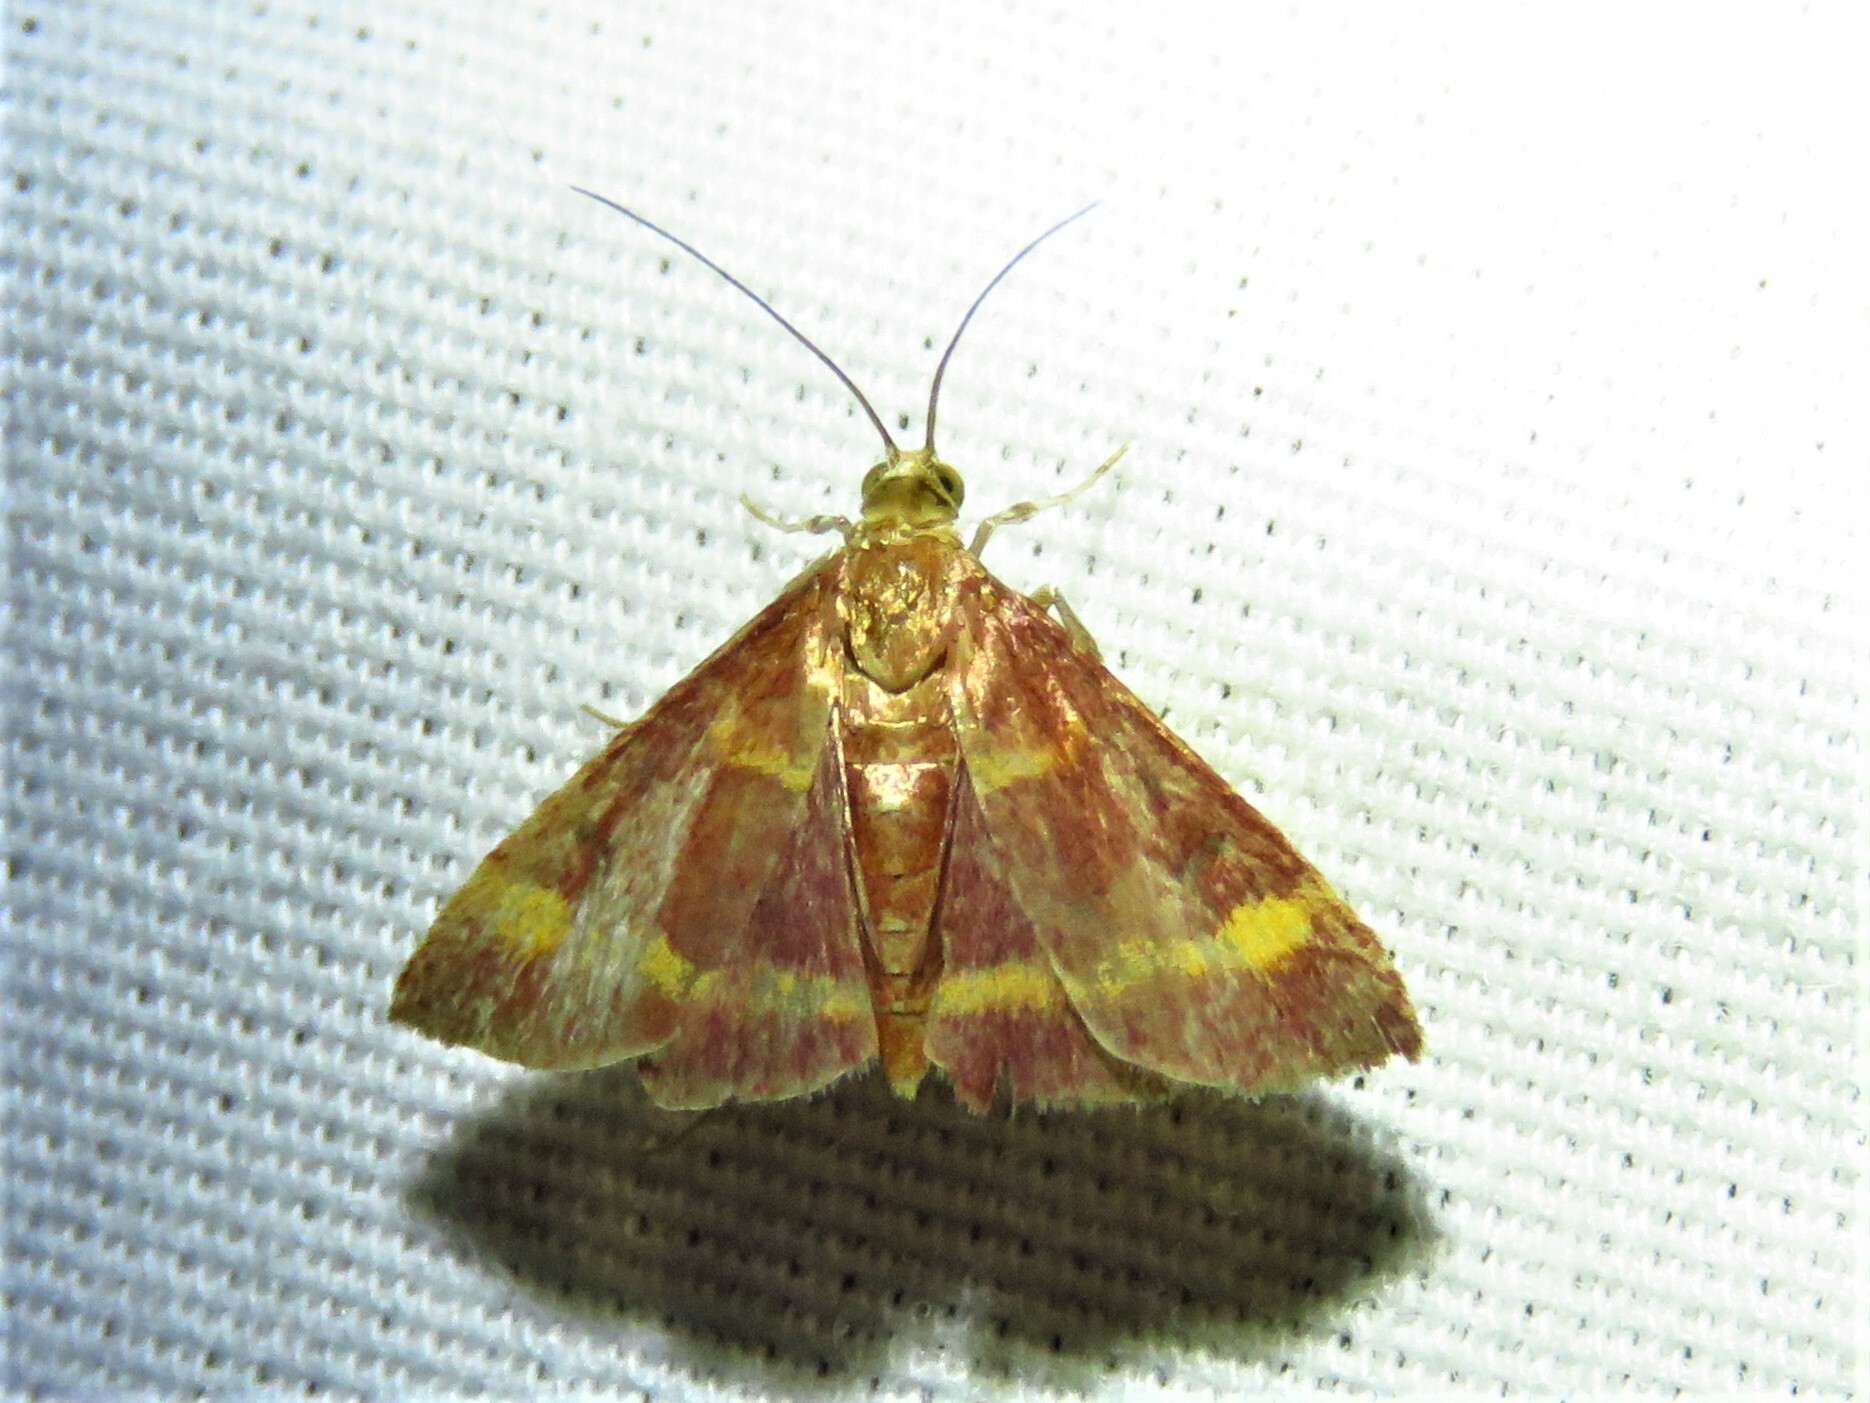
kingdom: Animalia
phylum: Arthropoda
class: Insecta
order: Lepidoptera
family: Crambidae
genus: Pyrausta
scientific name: Pyrausta pseuderosnealis
